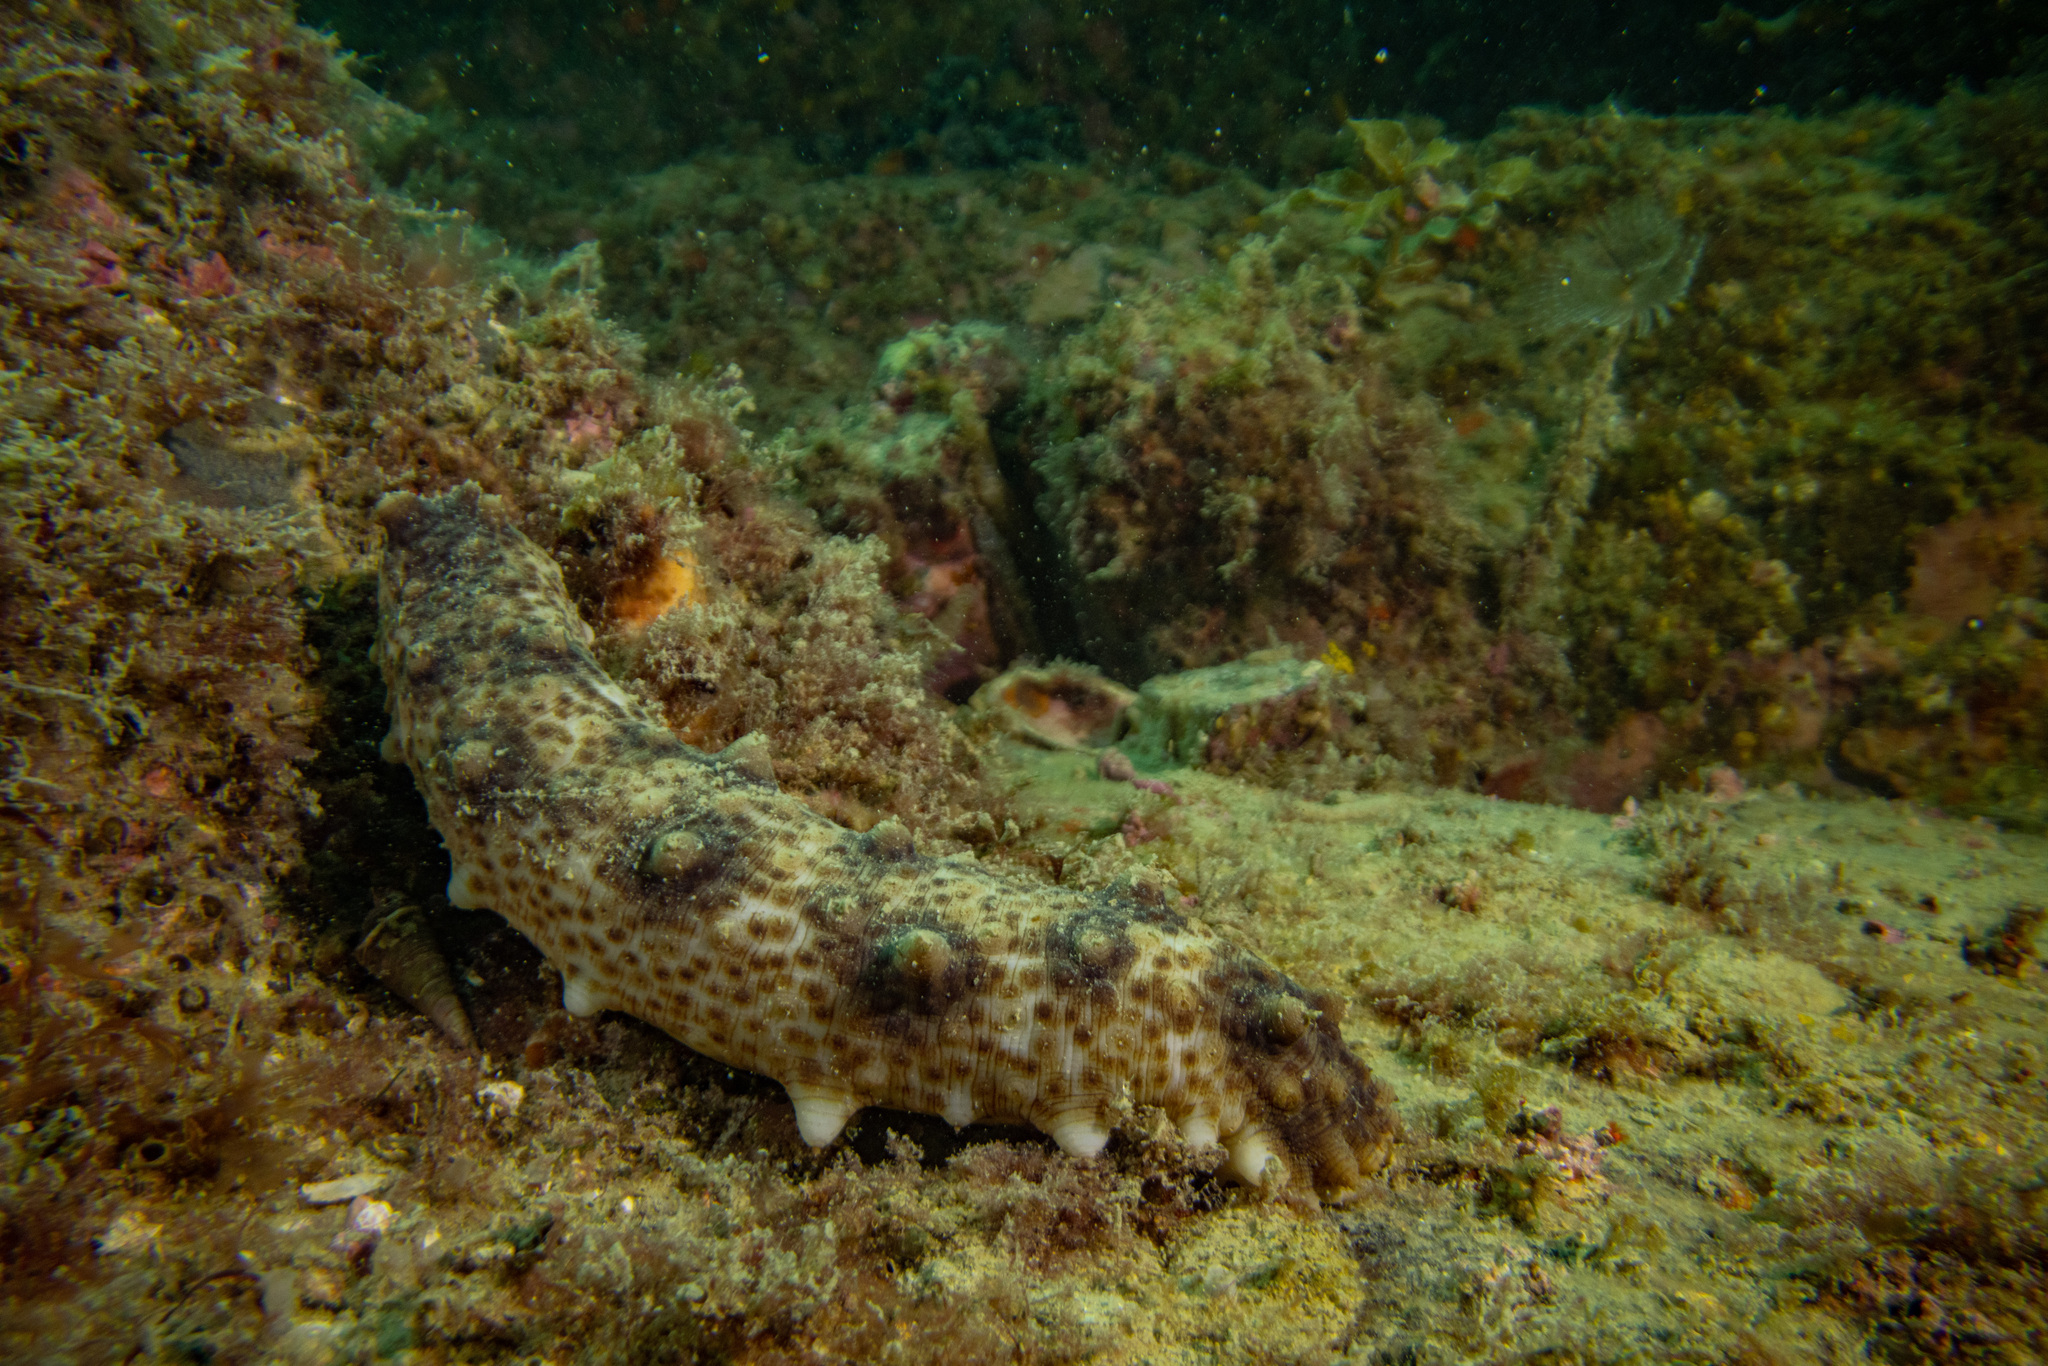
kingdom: Animalia
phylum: Echinodermata
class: Holothuroidea
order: Synallactida
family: Stichopodidae
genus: Australostichopus
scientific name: Australostichopus mollis
